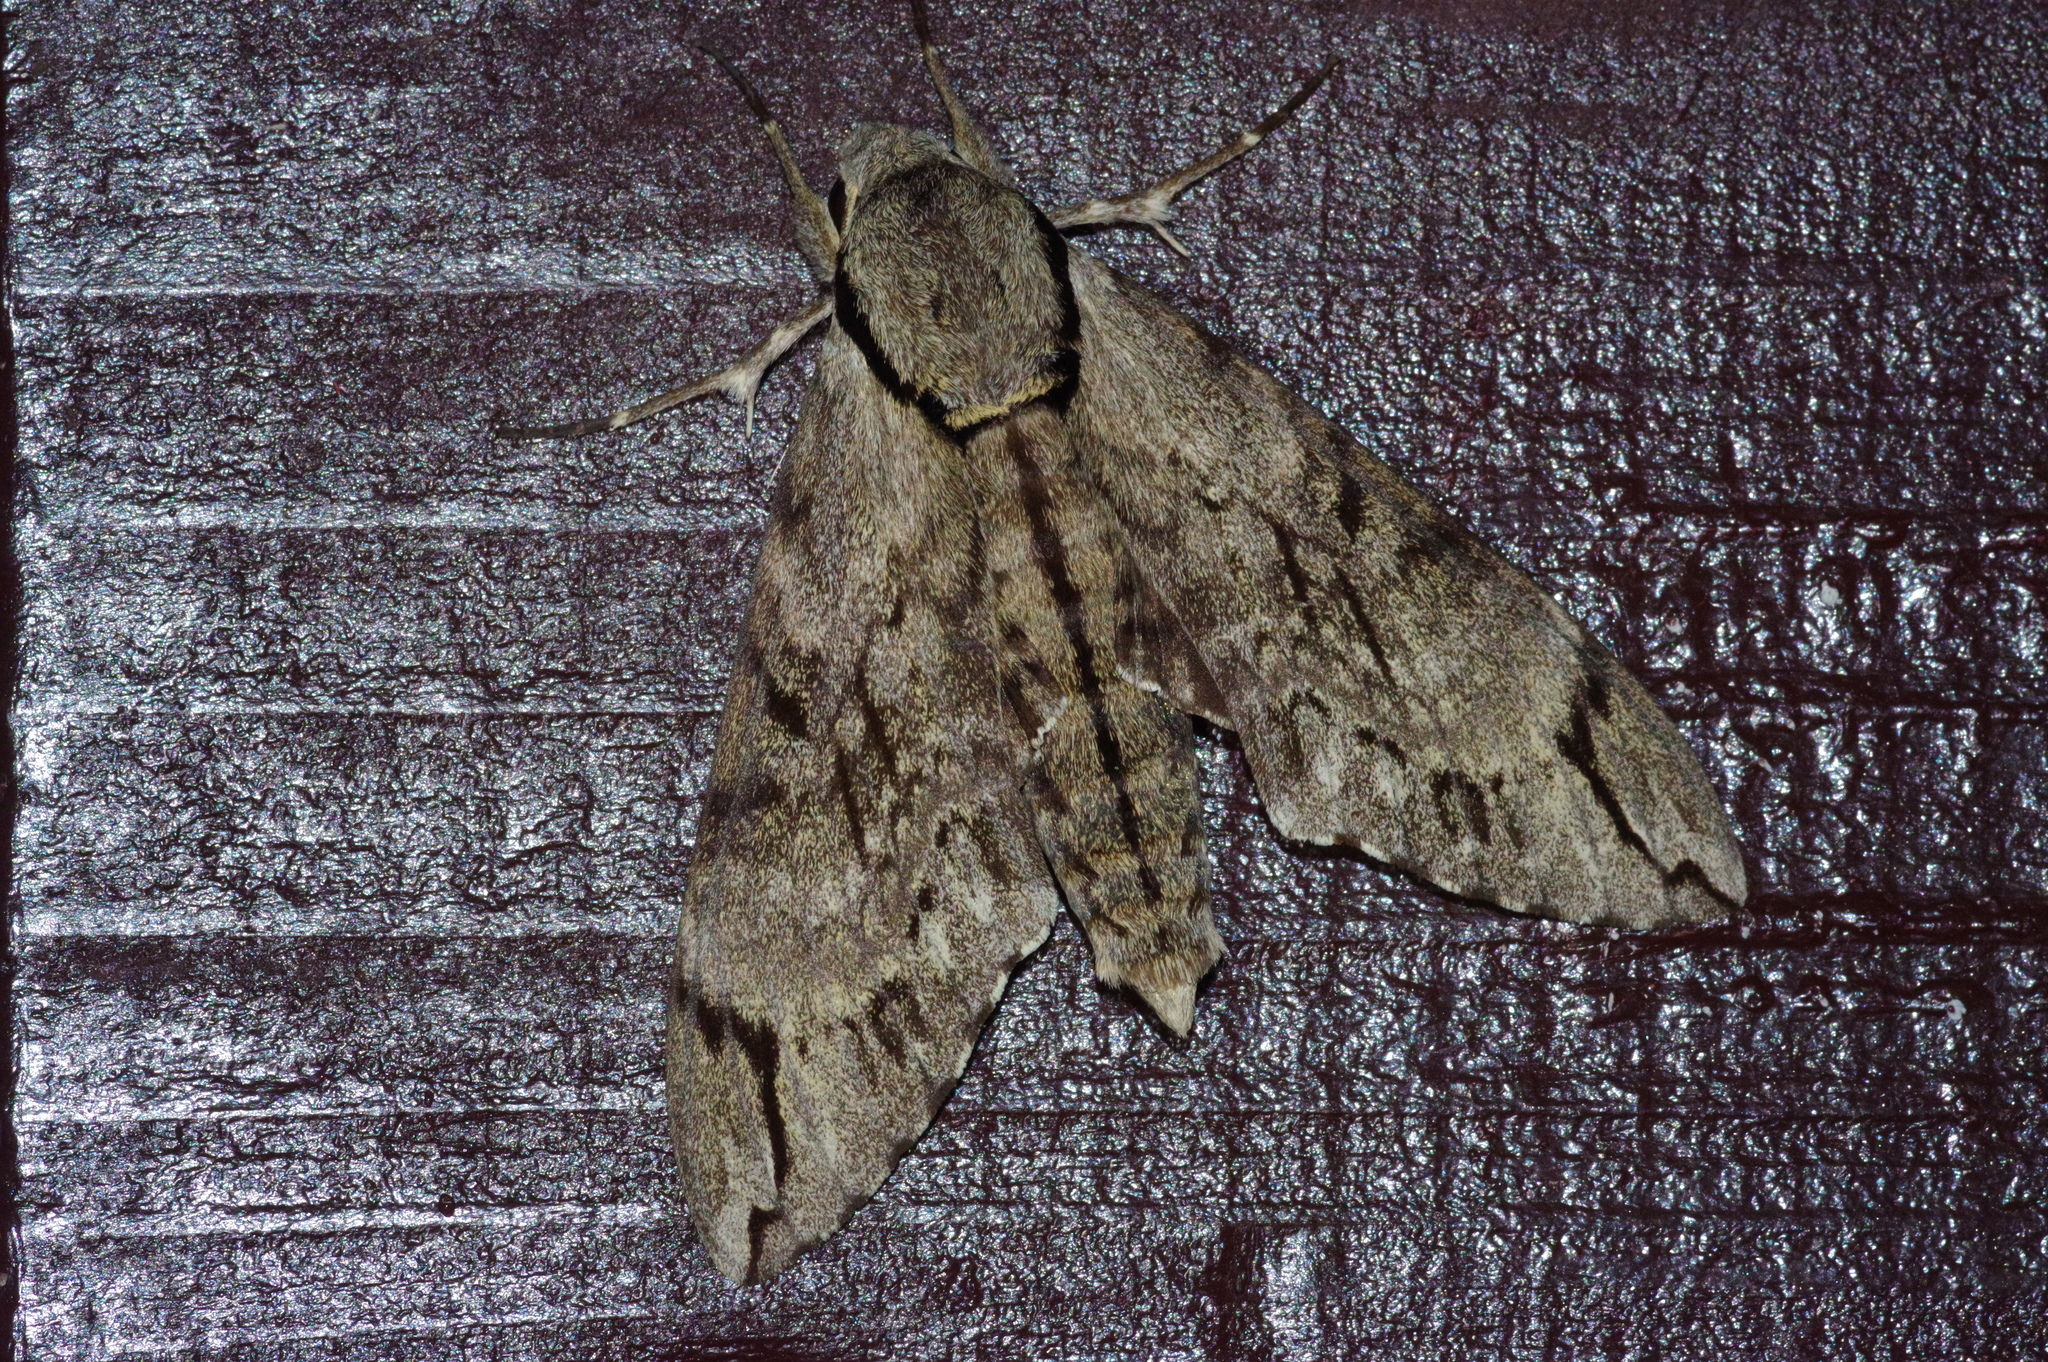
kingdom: Animalia
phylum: Arthropoda
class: Insecta
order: Lepidoptera
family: Sphingidae
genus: Psilogramma
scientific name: Psilogramma increta
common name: Gray hawk moth
